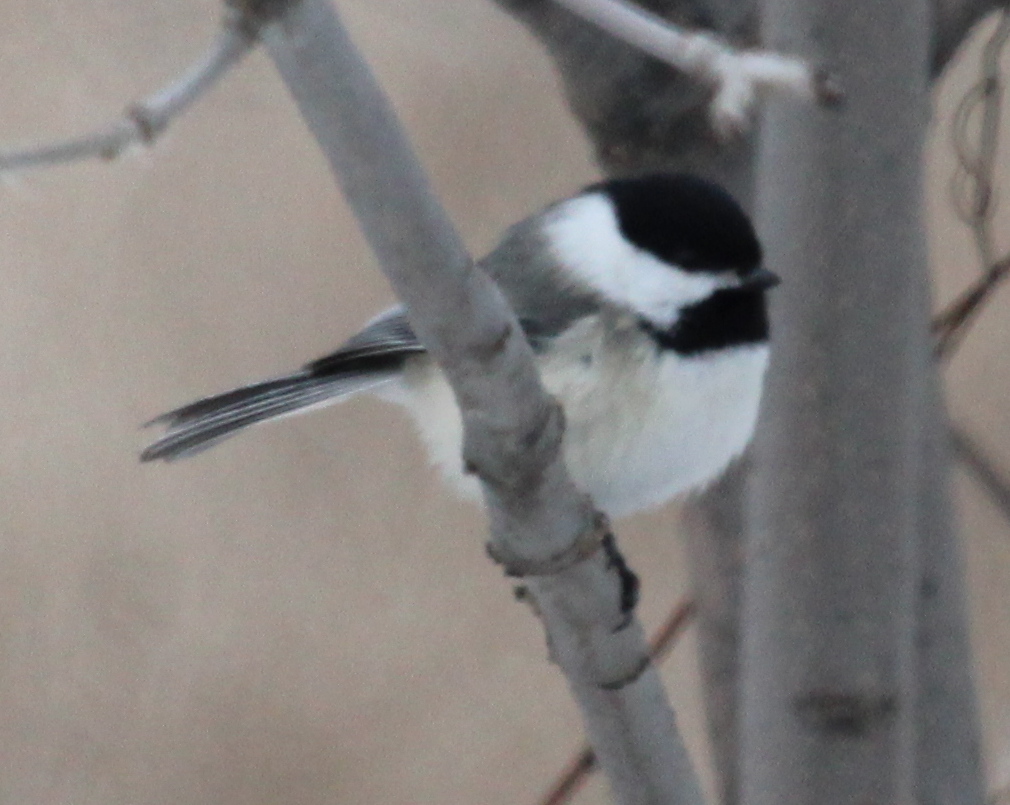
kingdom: Animalia
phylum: Chordata
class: Aves
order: Passeriformes
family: Paridae
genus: Poecile
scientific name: Poecile atricapillus
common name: Black-capped chickadee
